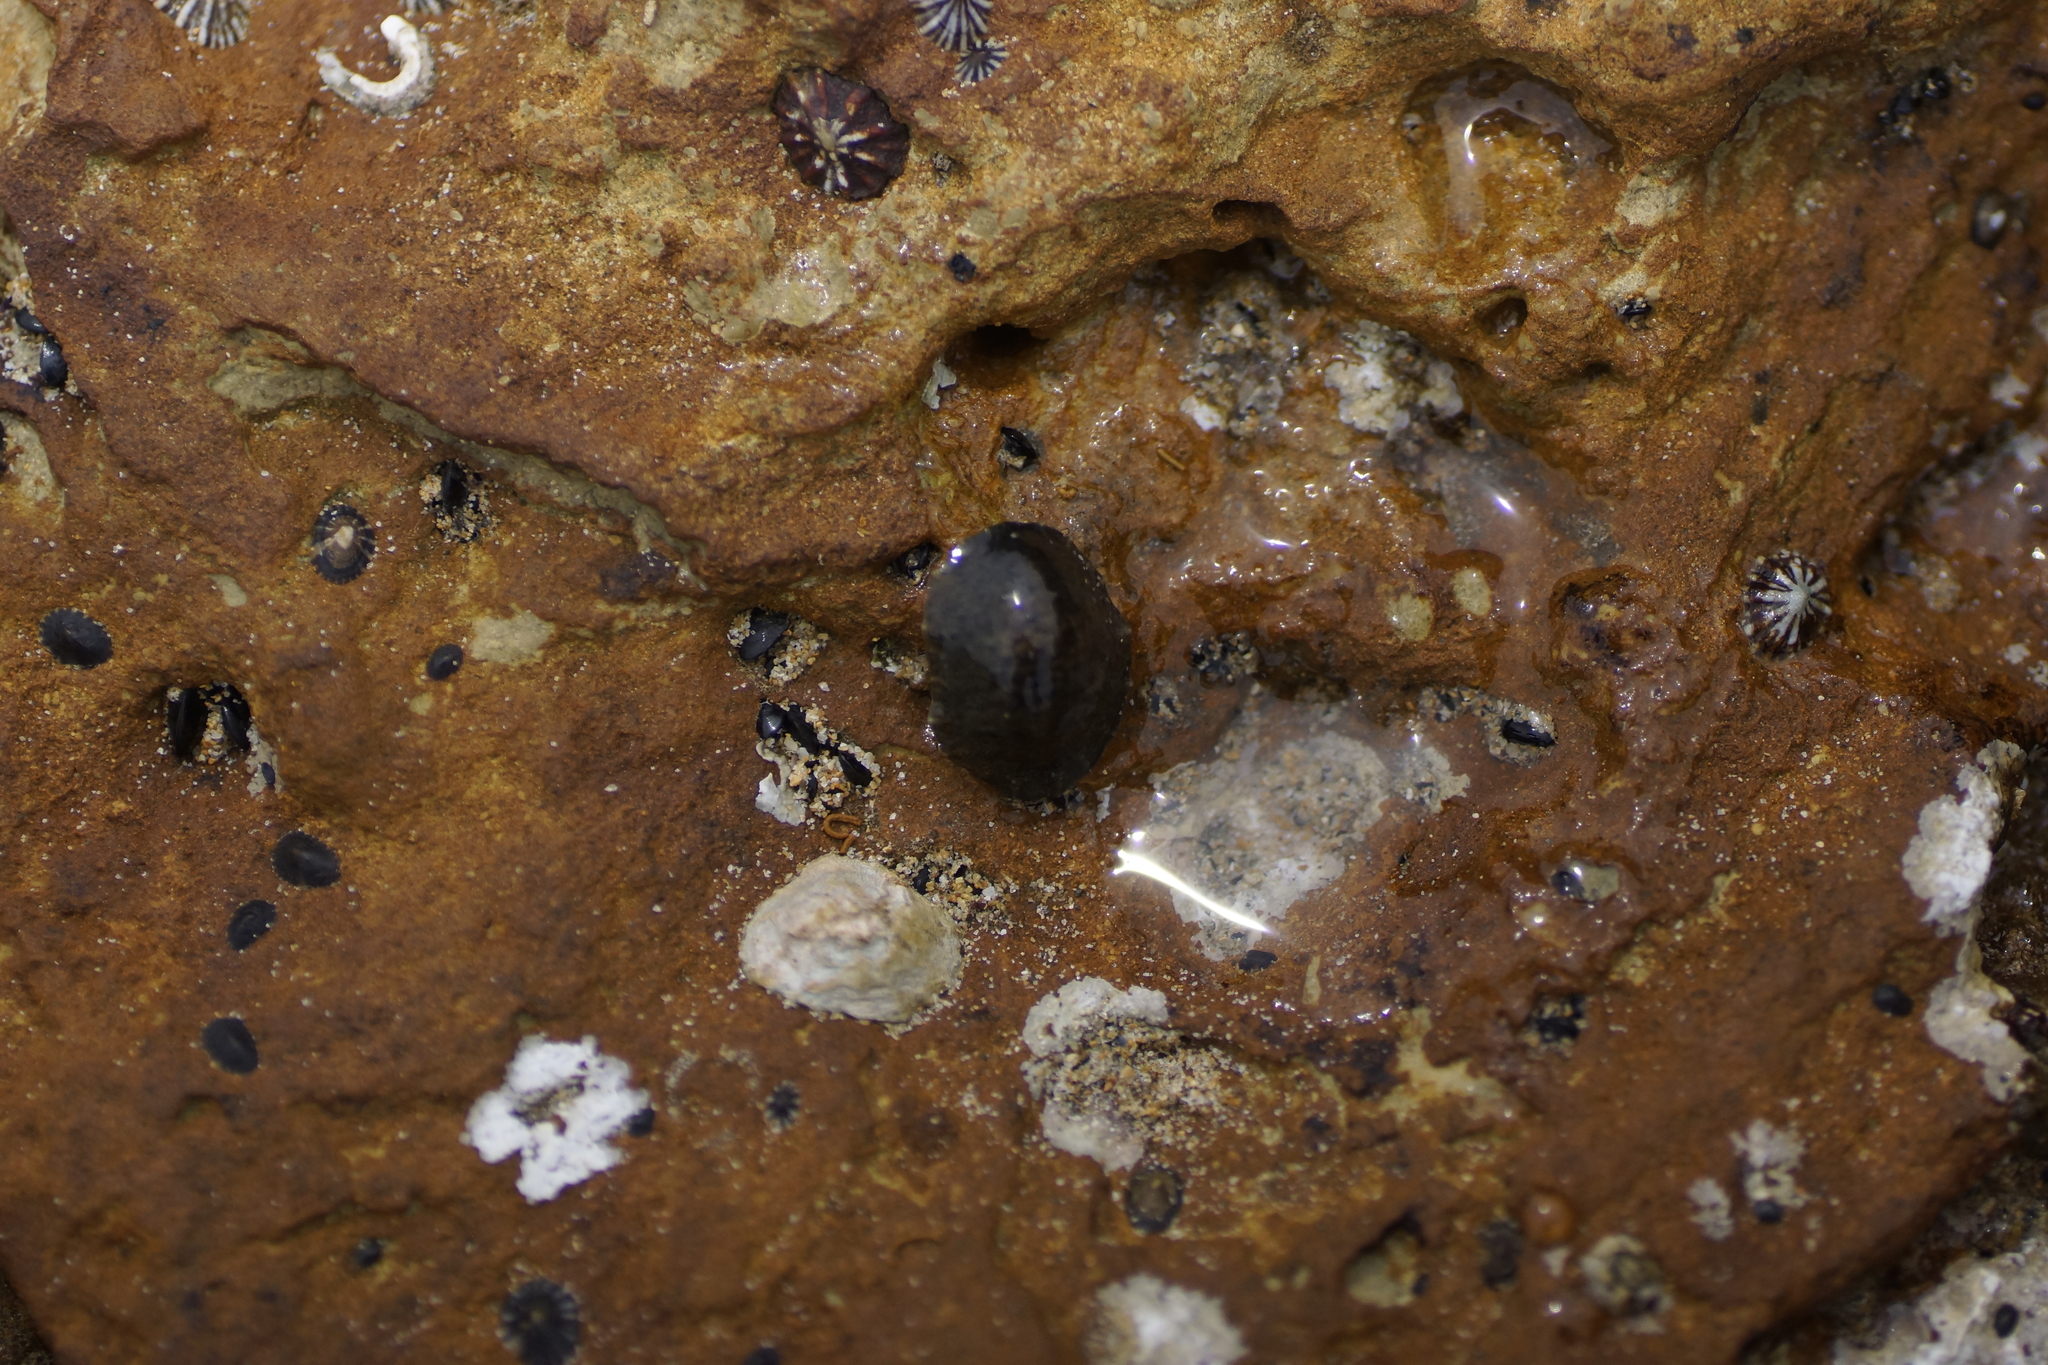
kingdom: Animalia
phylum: Mollusca
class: Gastropoda
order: Systellommatophora
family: Onchidiidae
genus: Onchidella
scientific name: Onchidella nigricans
